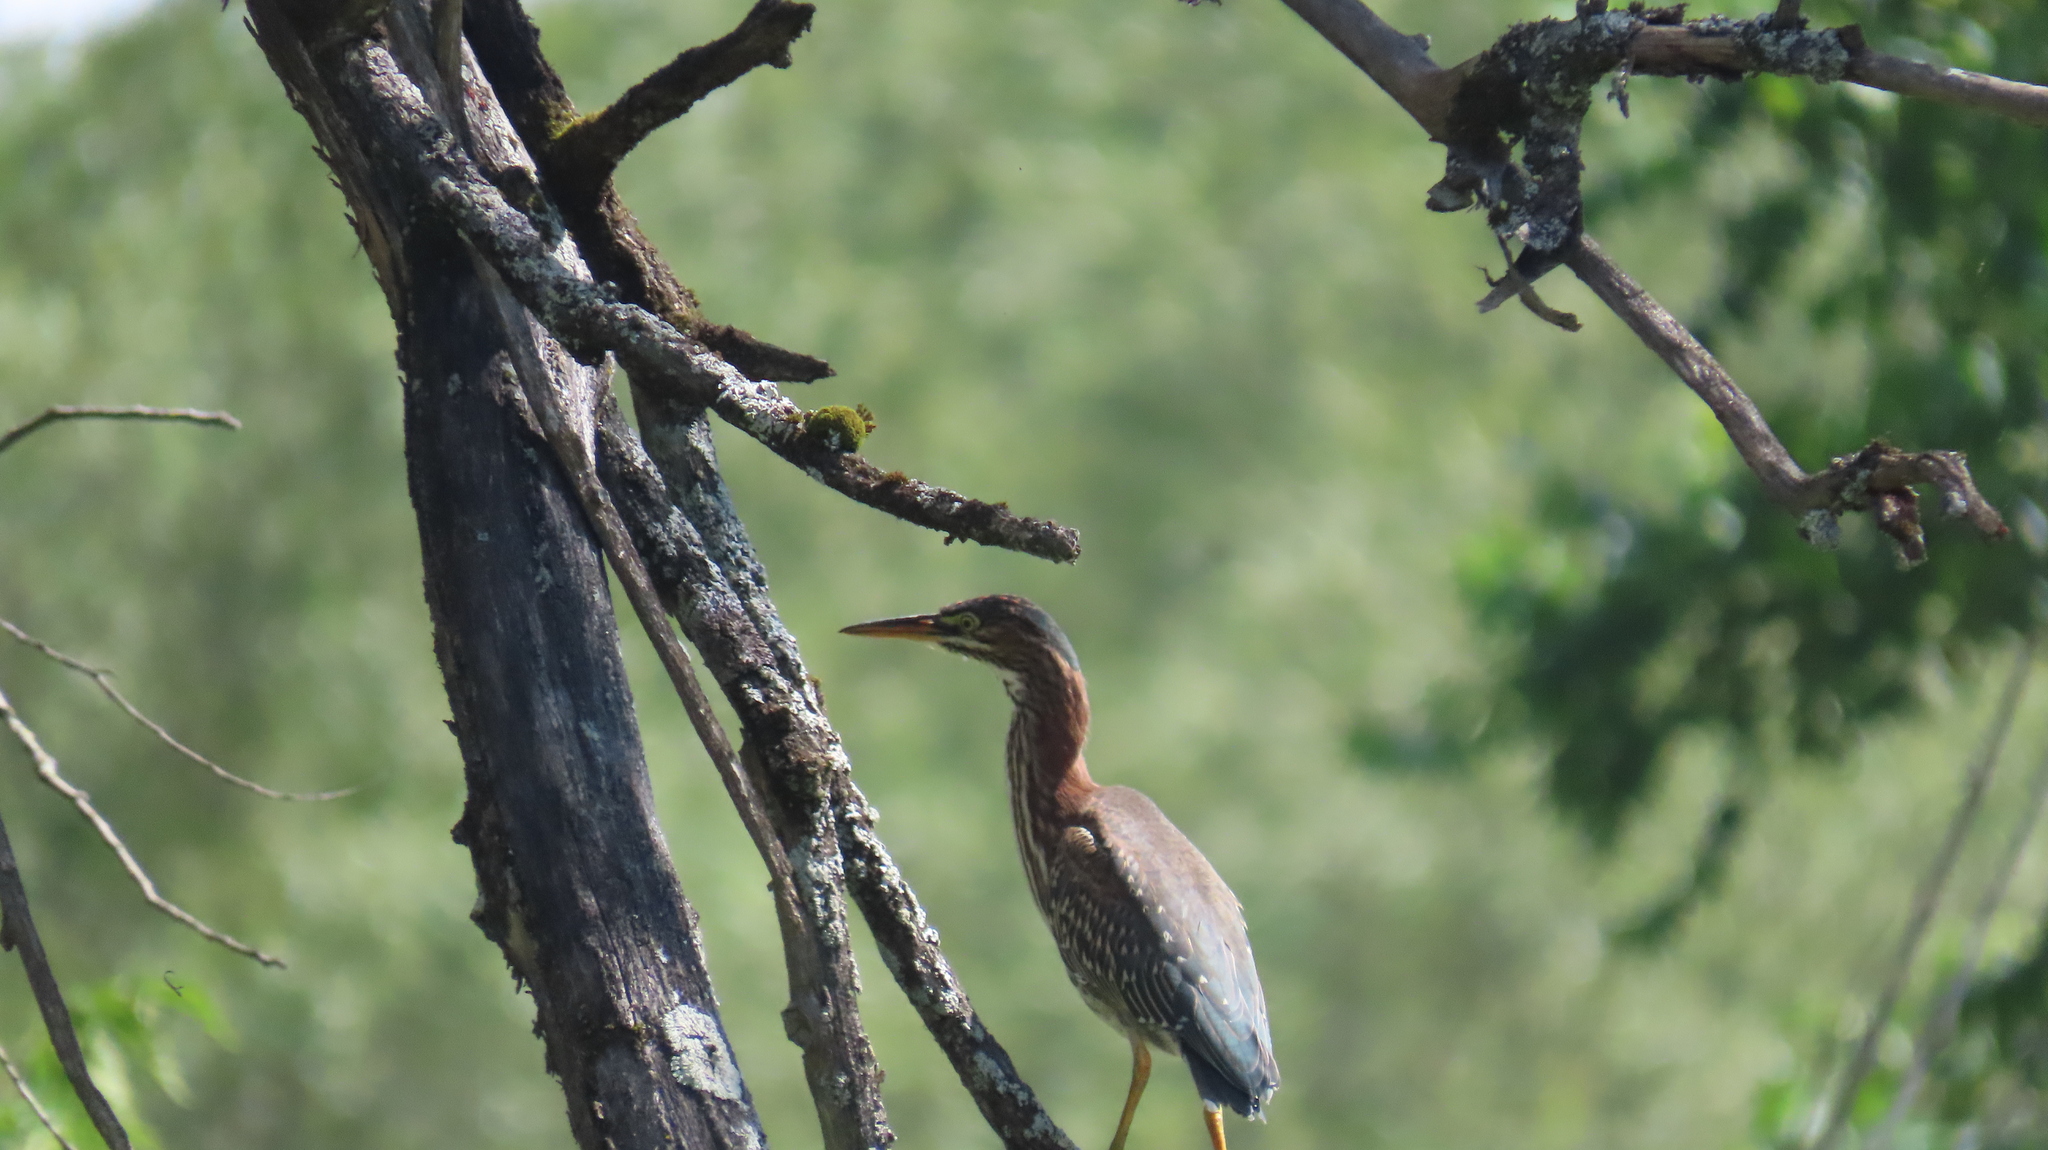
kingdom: Animalia
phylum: Chordata
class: Aves
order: Pelecaniformes
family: Ardeidae
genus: Butorides
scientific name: Butorides virescens
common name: Green heron
